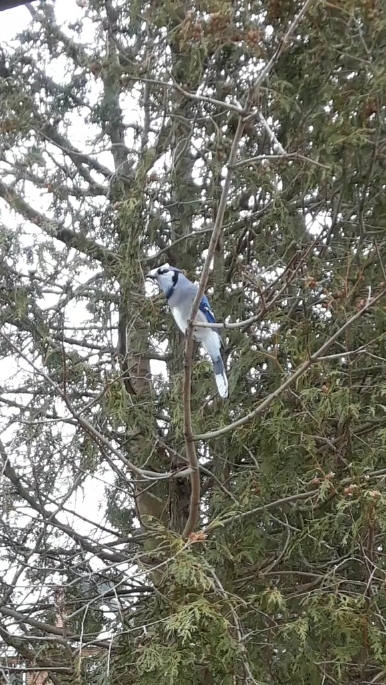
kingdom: Animalia
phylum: Chordata
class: Aves
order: Passeriformes
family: Corvidae
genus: Cyanocitta
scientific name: Cyanocitta cristata
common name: Blue jay
